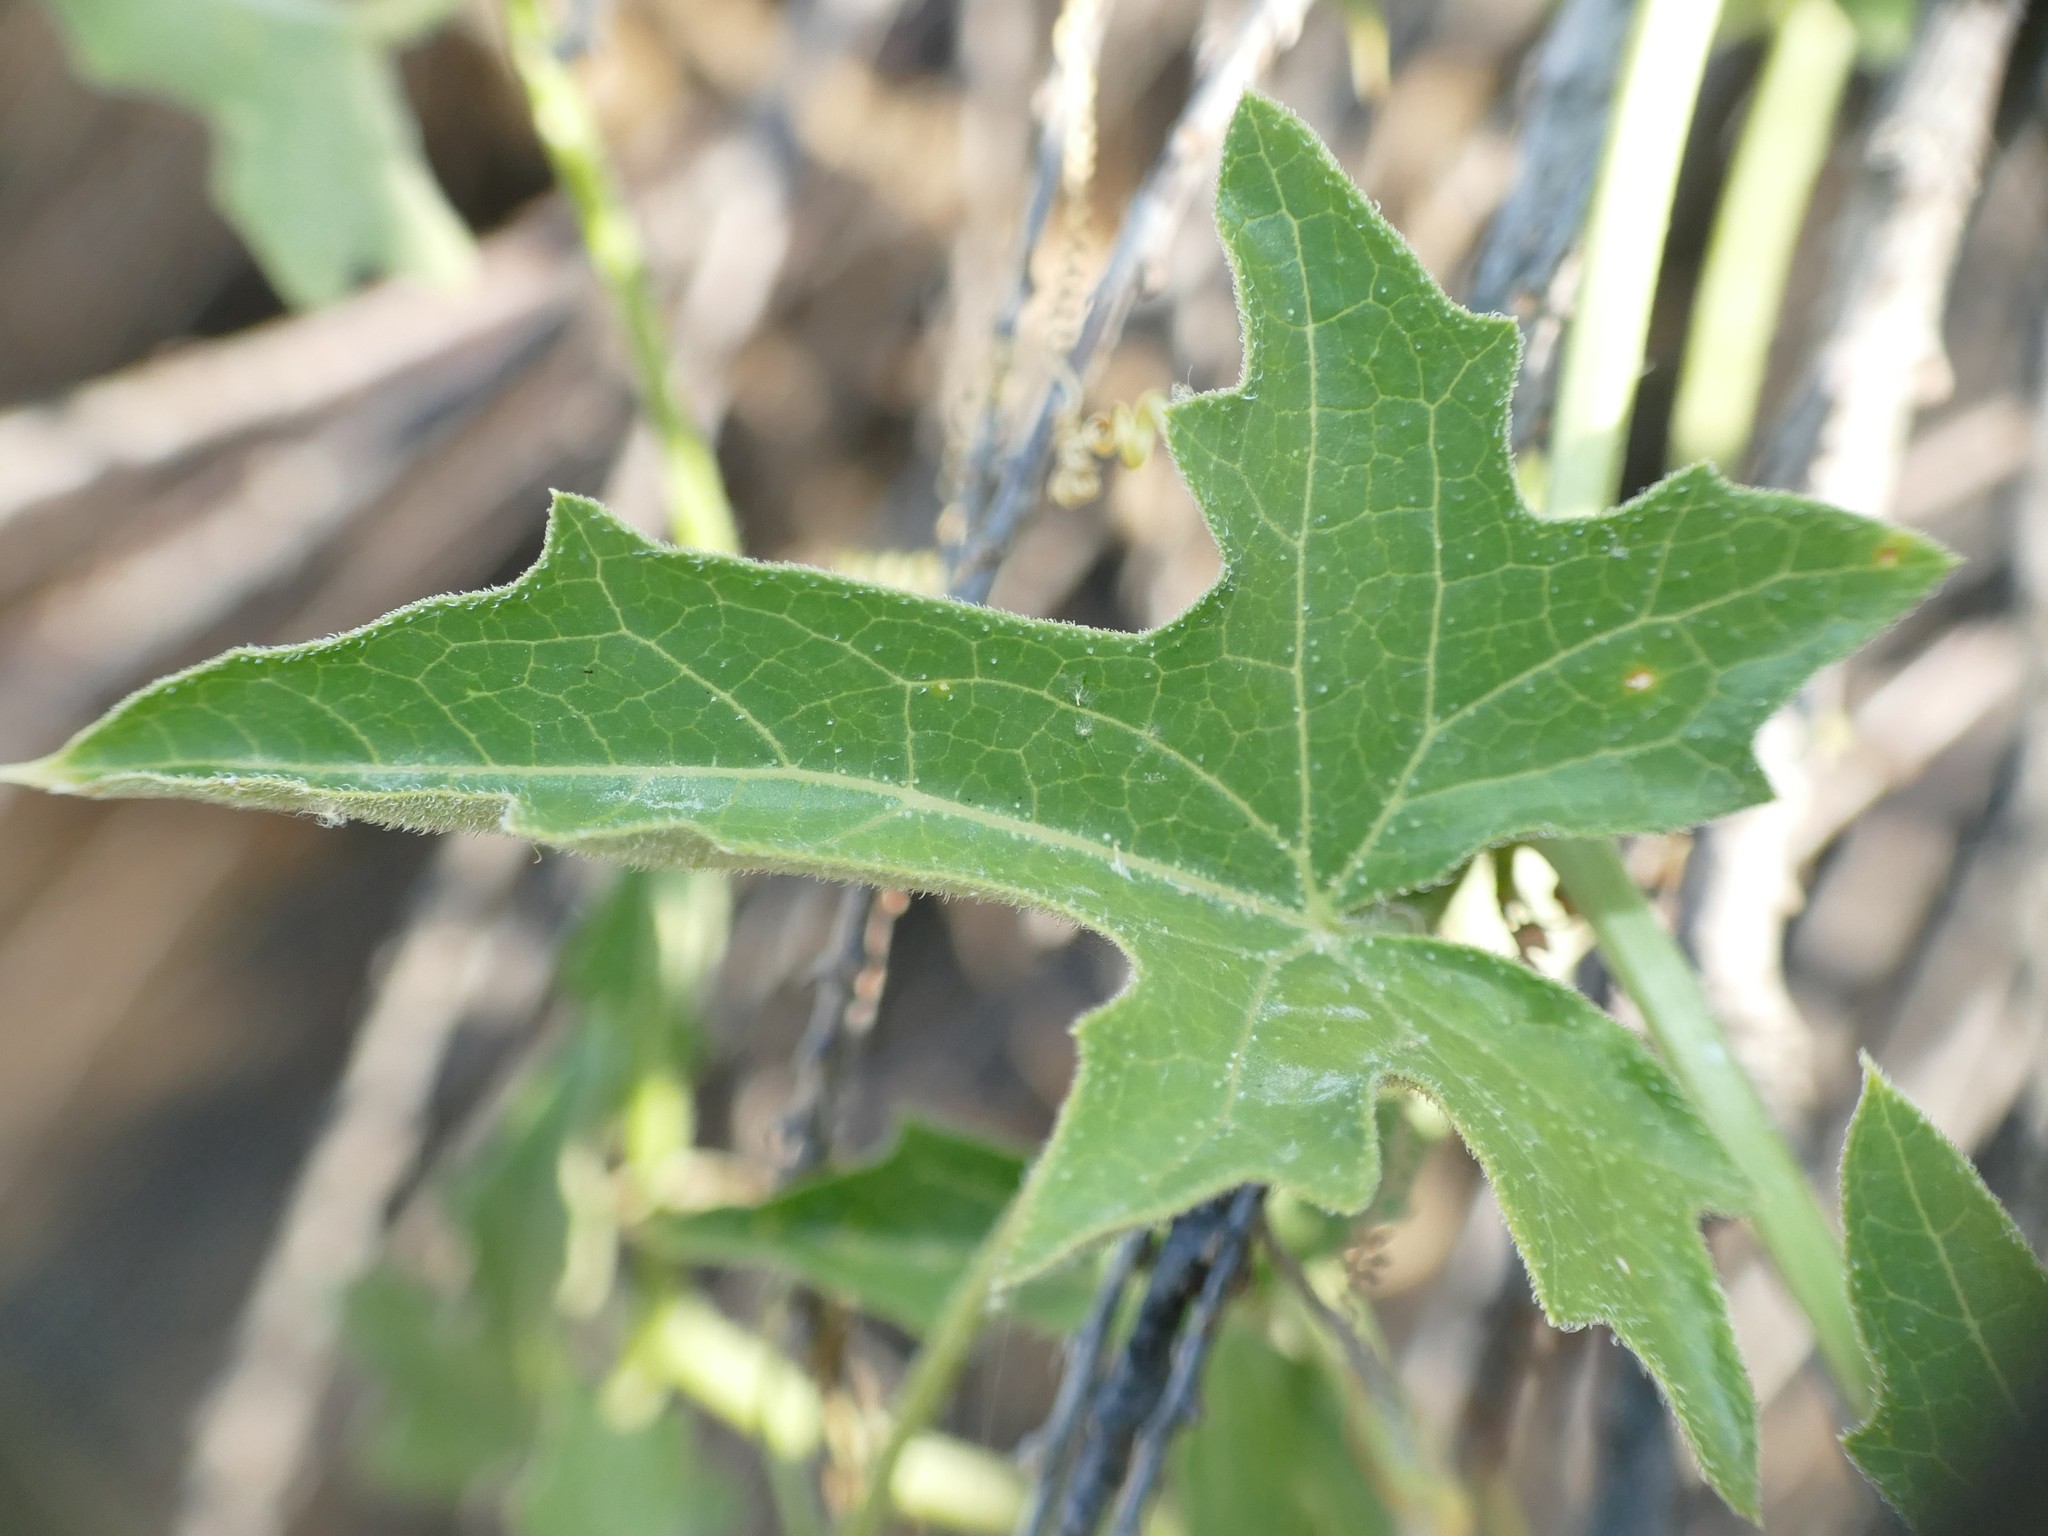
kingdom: Plantae
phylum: Tracheophyta
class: Magnoliopsida
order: Cucurbitales
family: Cucurbitaceae
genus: Bryonia
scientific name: Bryonia cretica
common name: Cretan bryony
